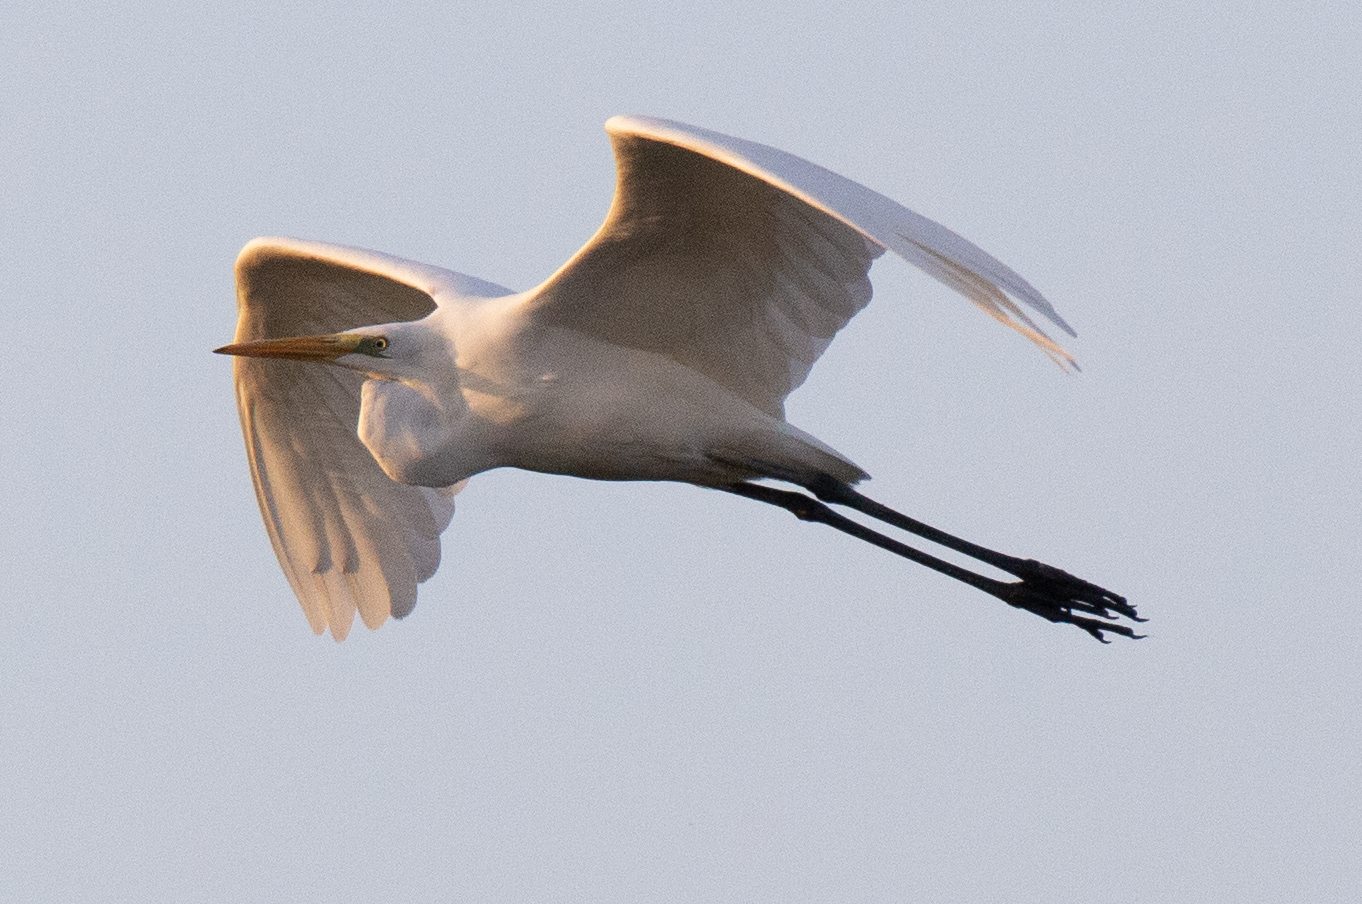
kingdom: Animalia
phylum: Chordata
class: Aves
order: Pelecaniformes
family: Ardeidae
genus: Ardea
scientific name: Ardea alba
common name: Great egret
